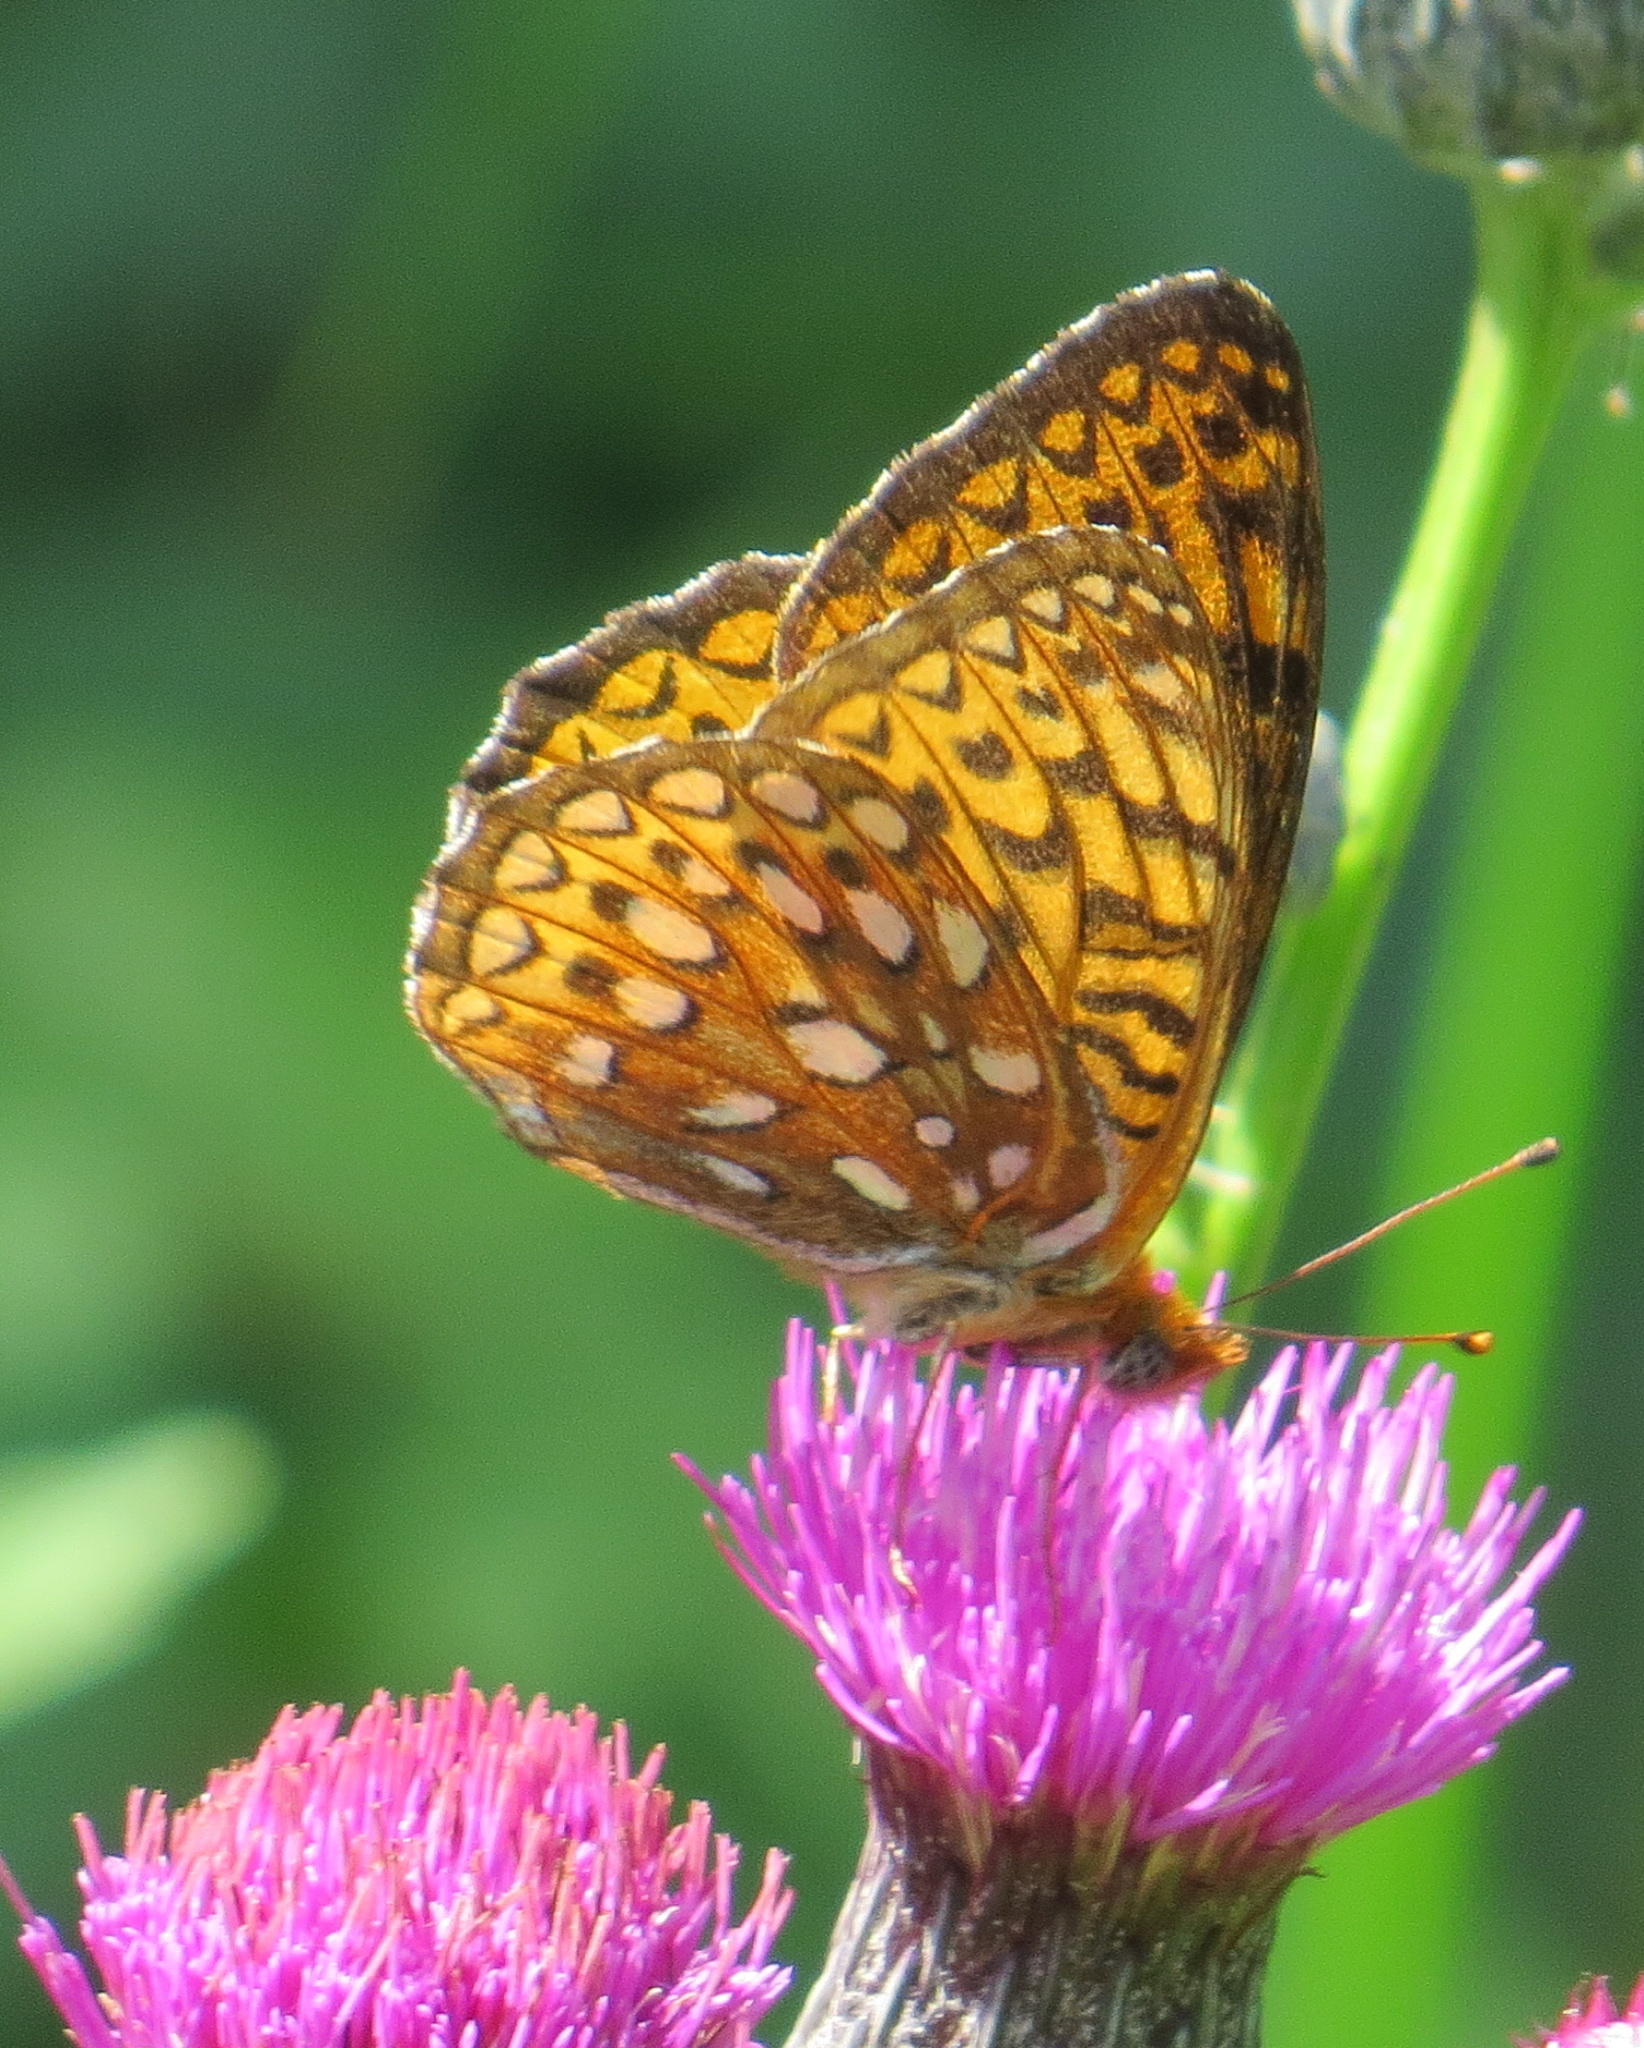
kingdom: Animalia
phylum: Arthropoda
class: Insecta
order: Lepidoptera
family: Nymphalidae
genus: Speyeria
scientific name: Speyeria atlantis
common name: Atlantis fritillary
